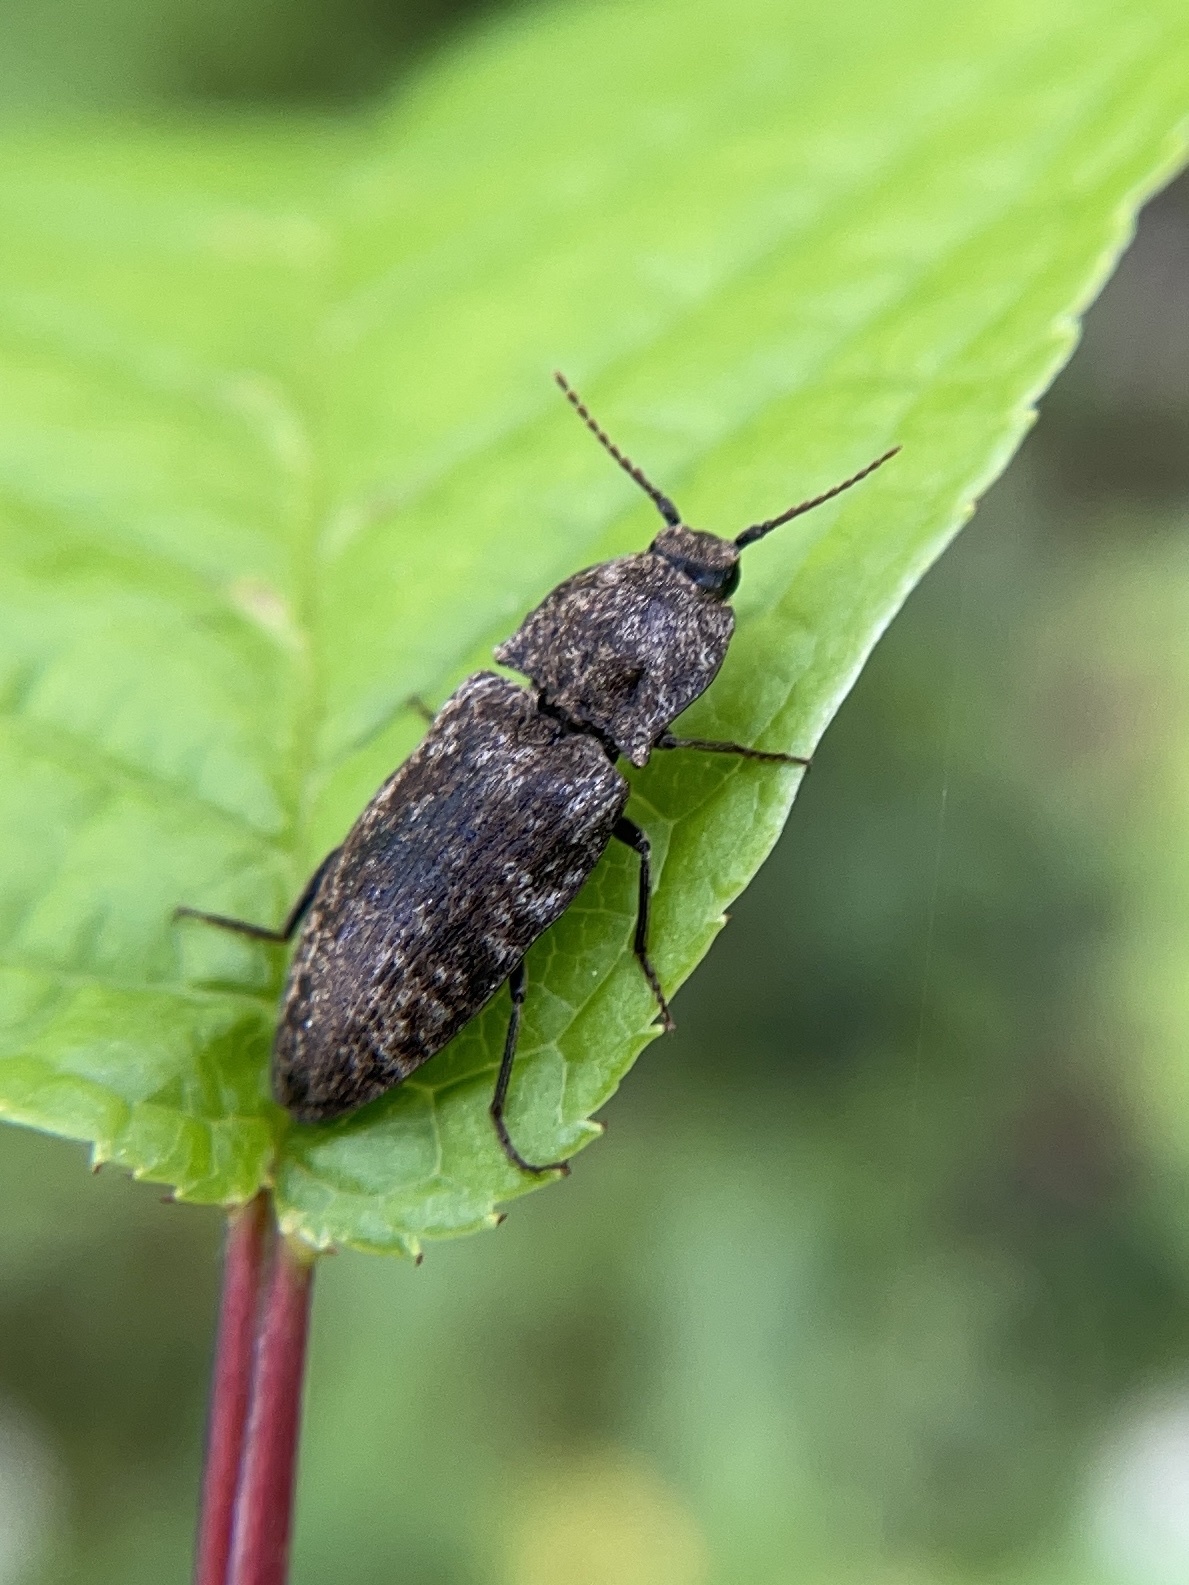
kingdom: Animalia
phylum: Arthropoda
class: Insecta
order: Coleoptera
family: Elateridae
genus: Agrypnus
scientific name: Agrypnus murinus
